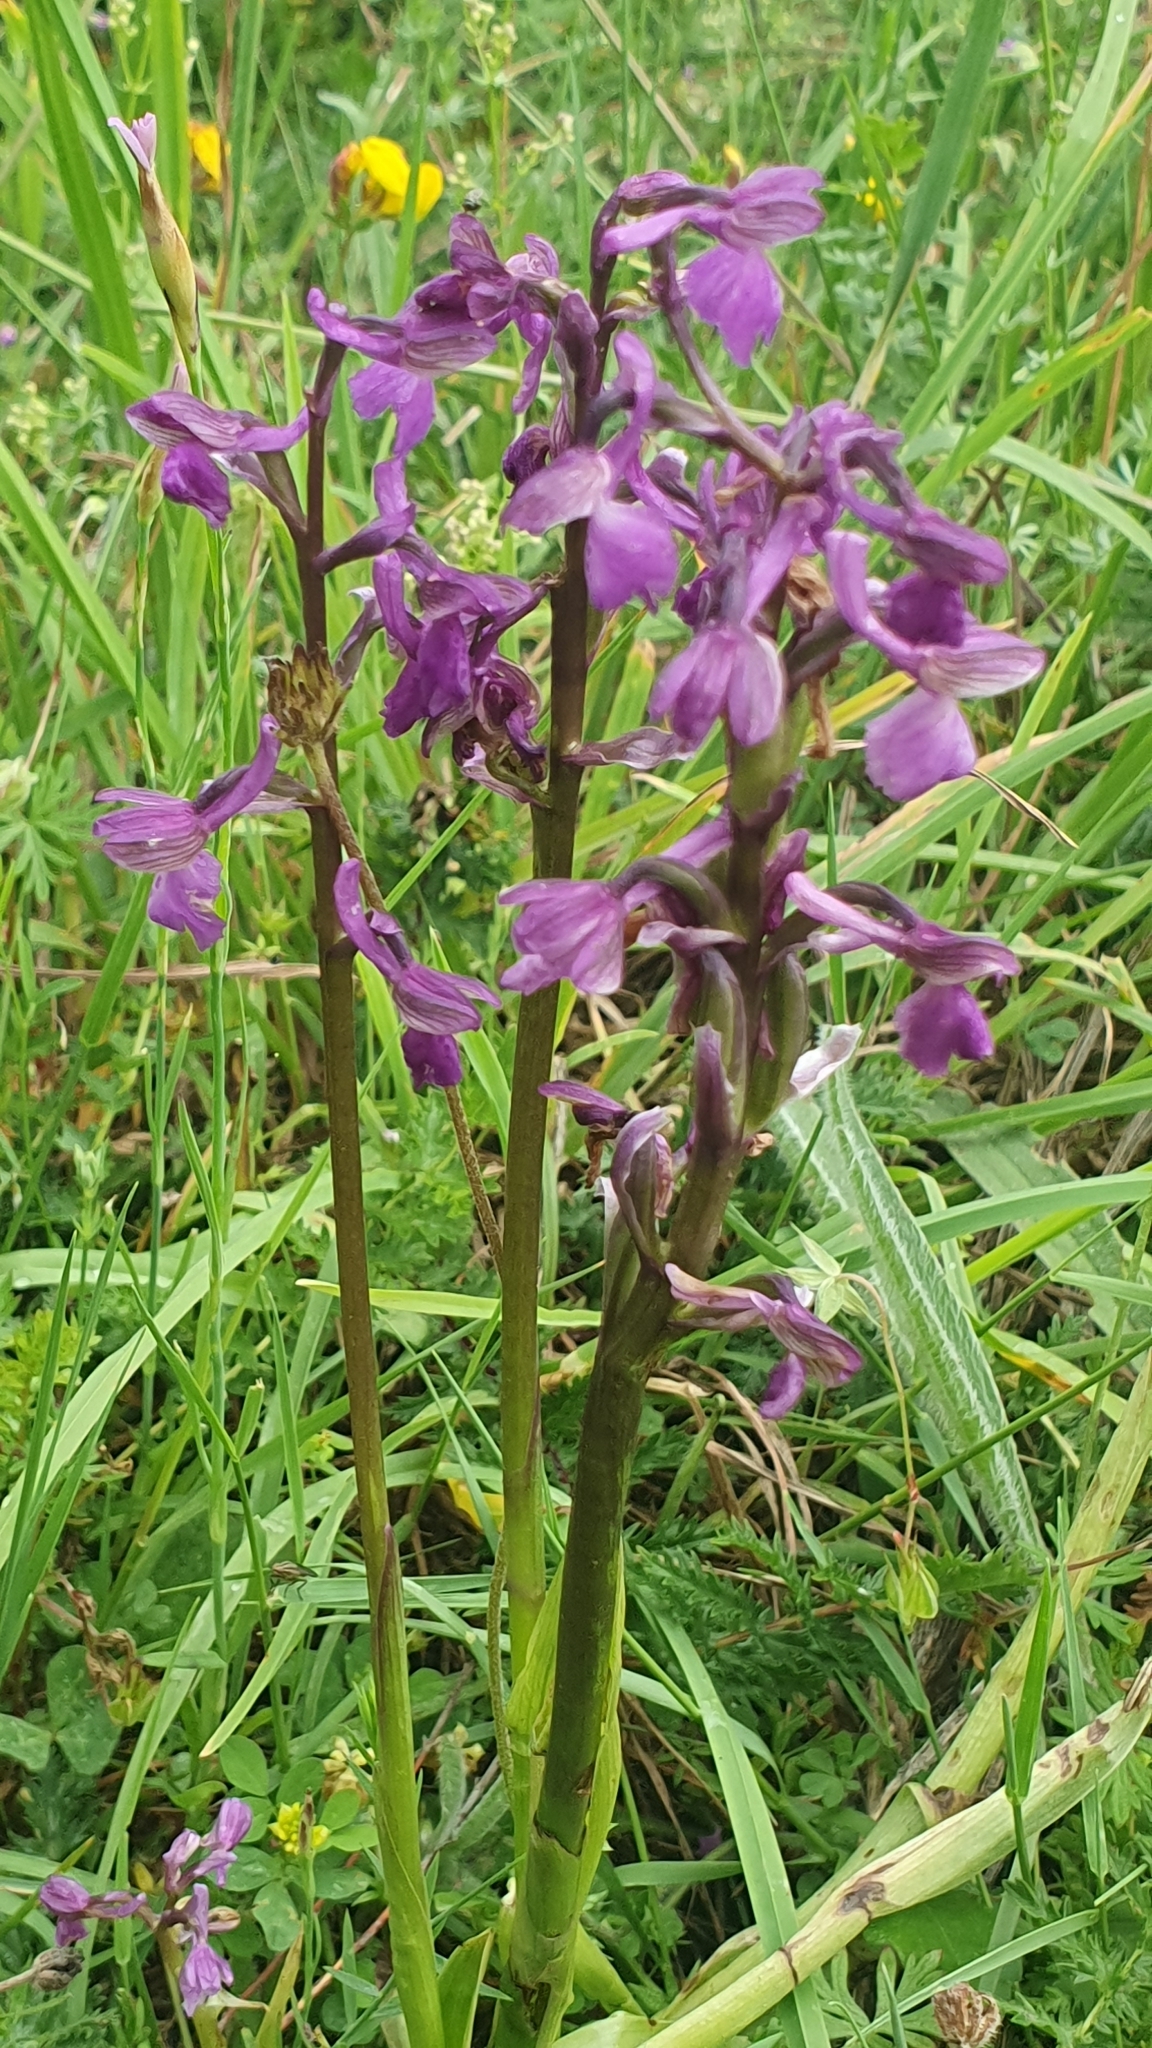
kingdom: Plantae
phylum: Tracheophyta
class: Liliopsida
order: Asparagales
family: Orchidaceae
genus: Anacamptis
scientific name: Anacamptis morio
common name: Green-winged orchid
